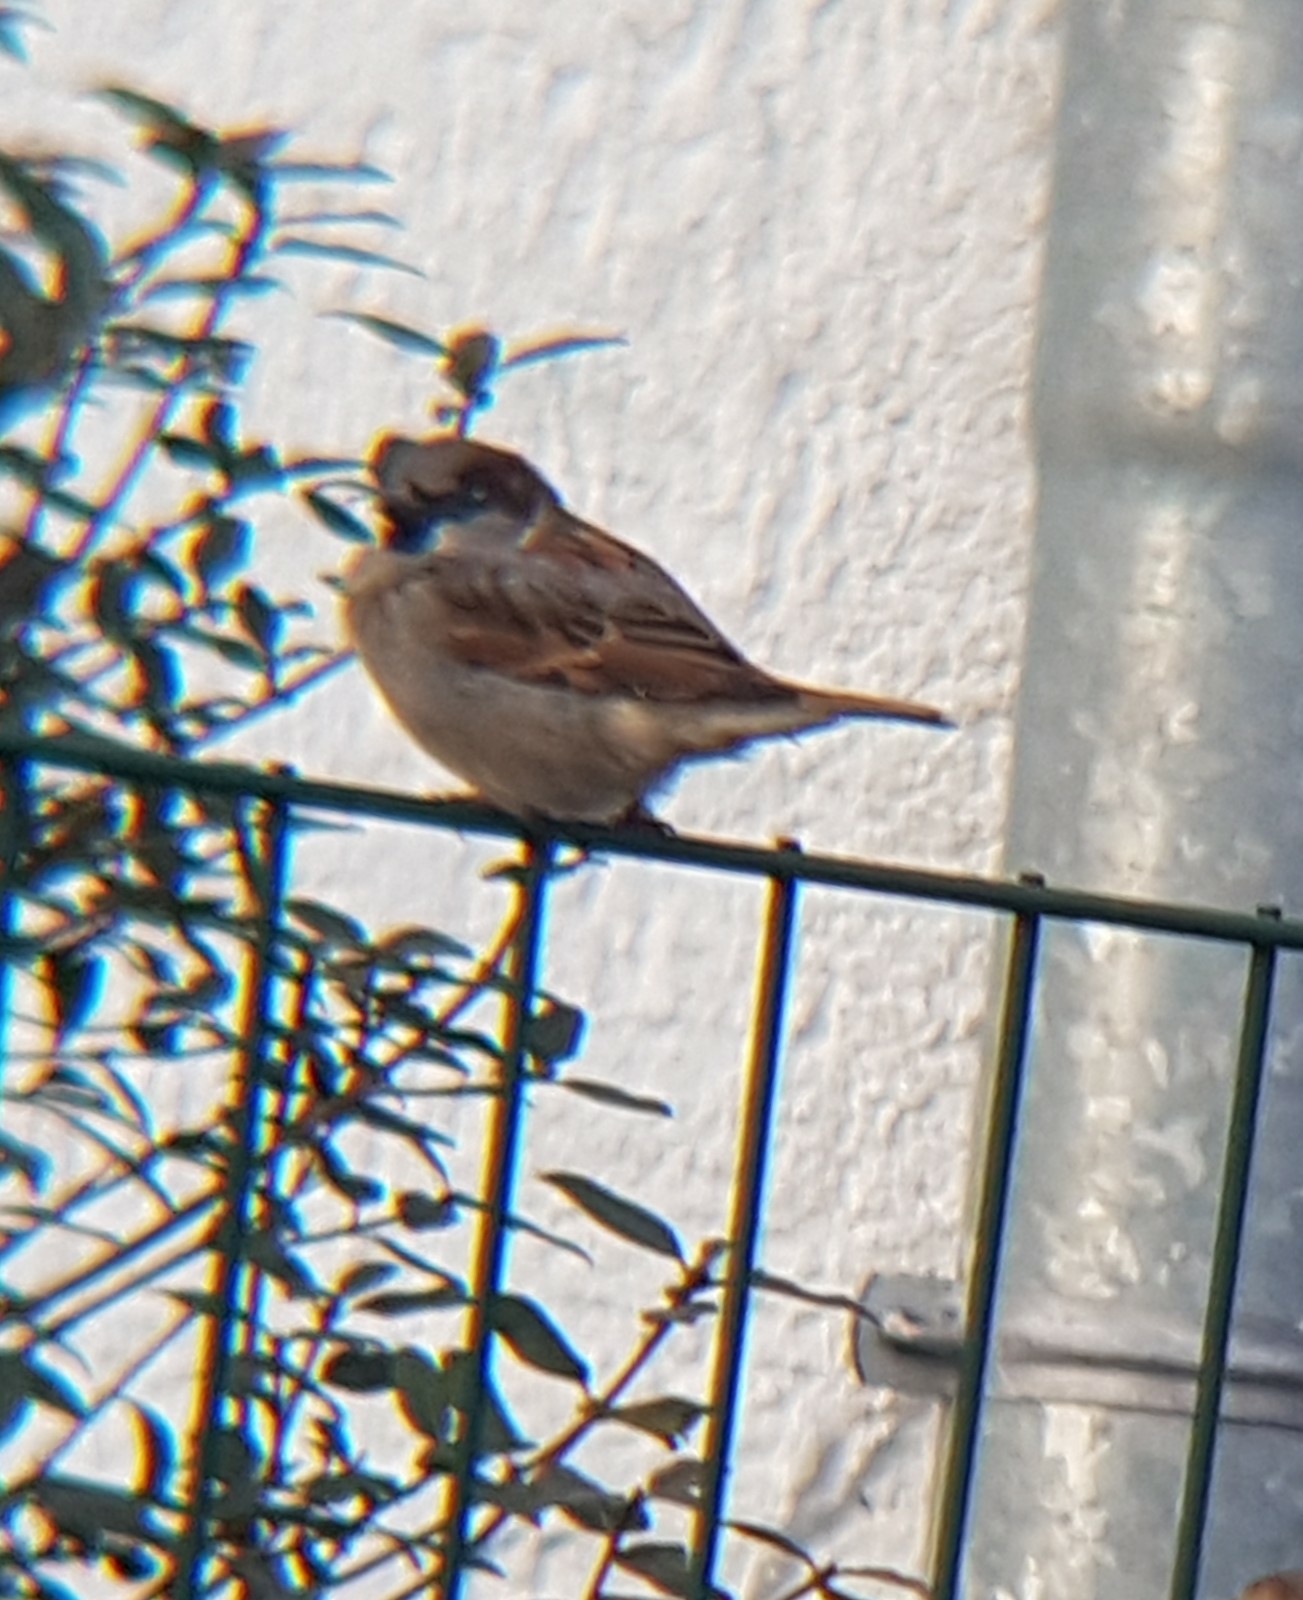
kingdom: Animalia
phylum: Chordata
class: Aves
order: Passeriformes
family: Passeridae
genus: Passer
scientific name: Passer domesticus
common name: House sparrow
